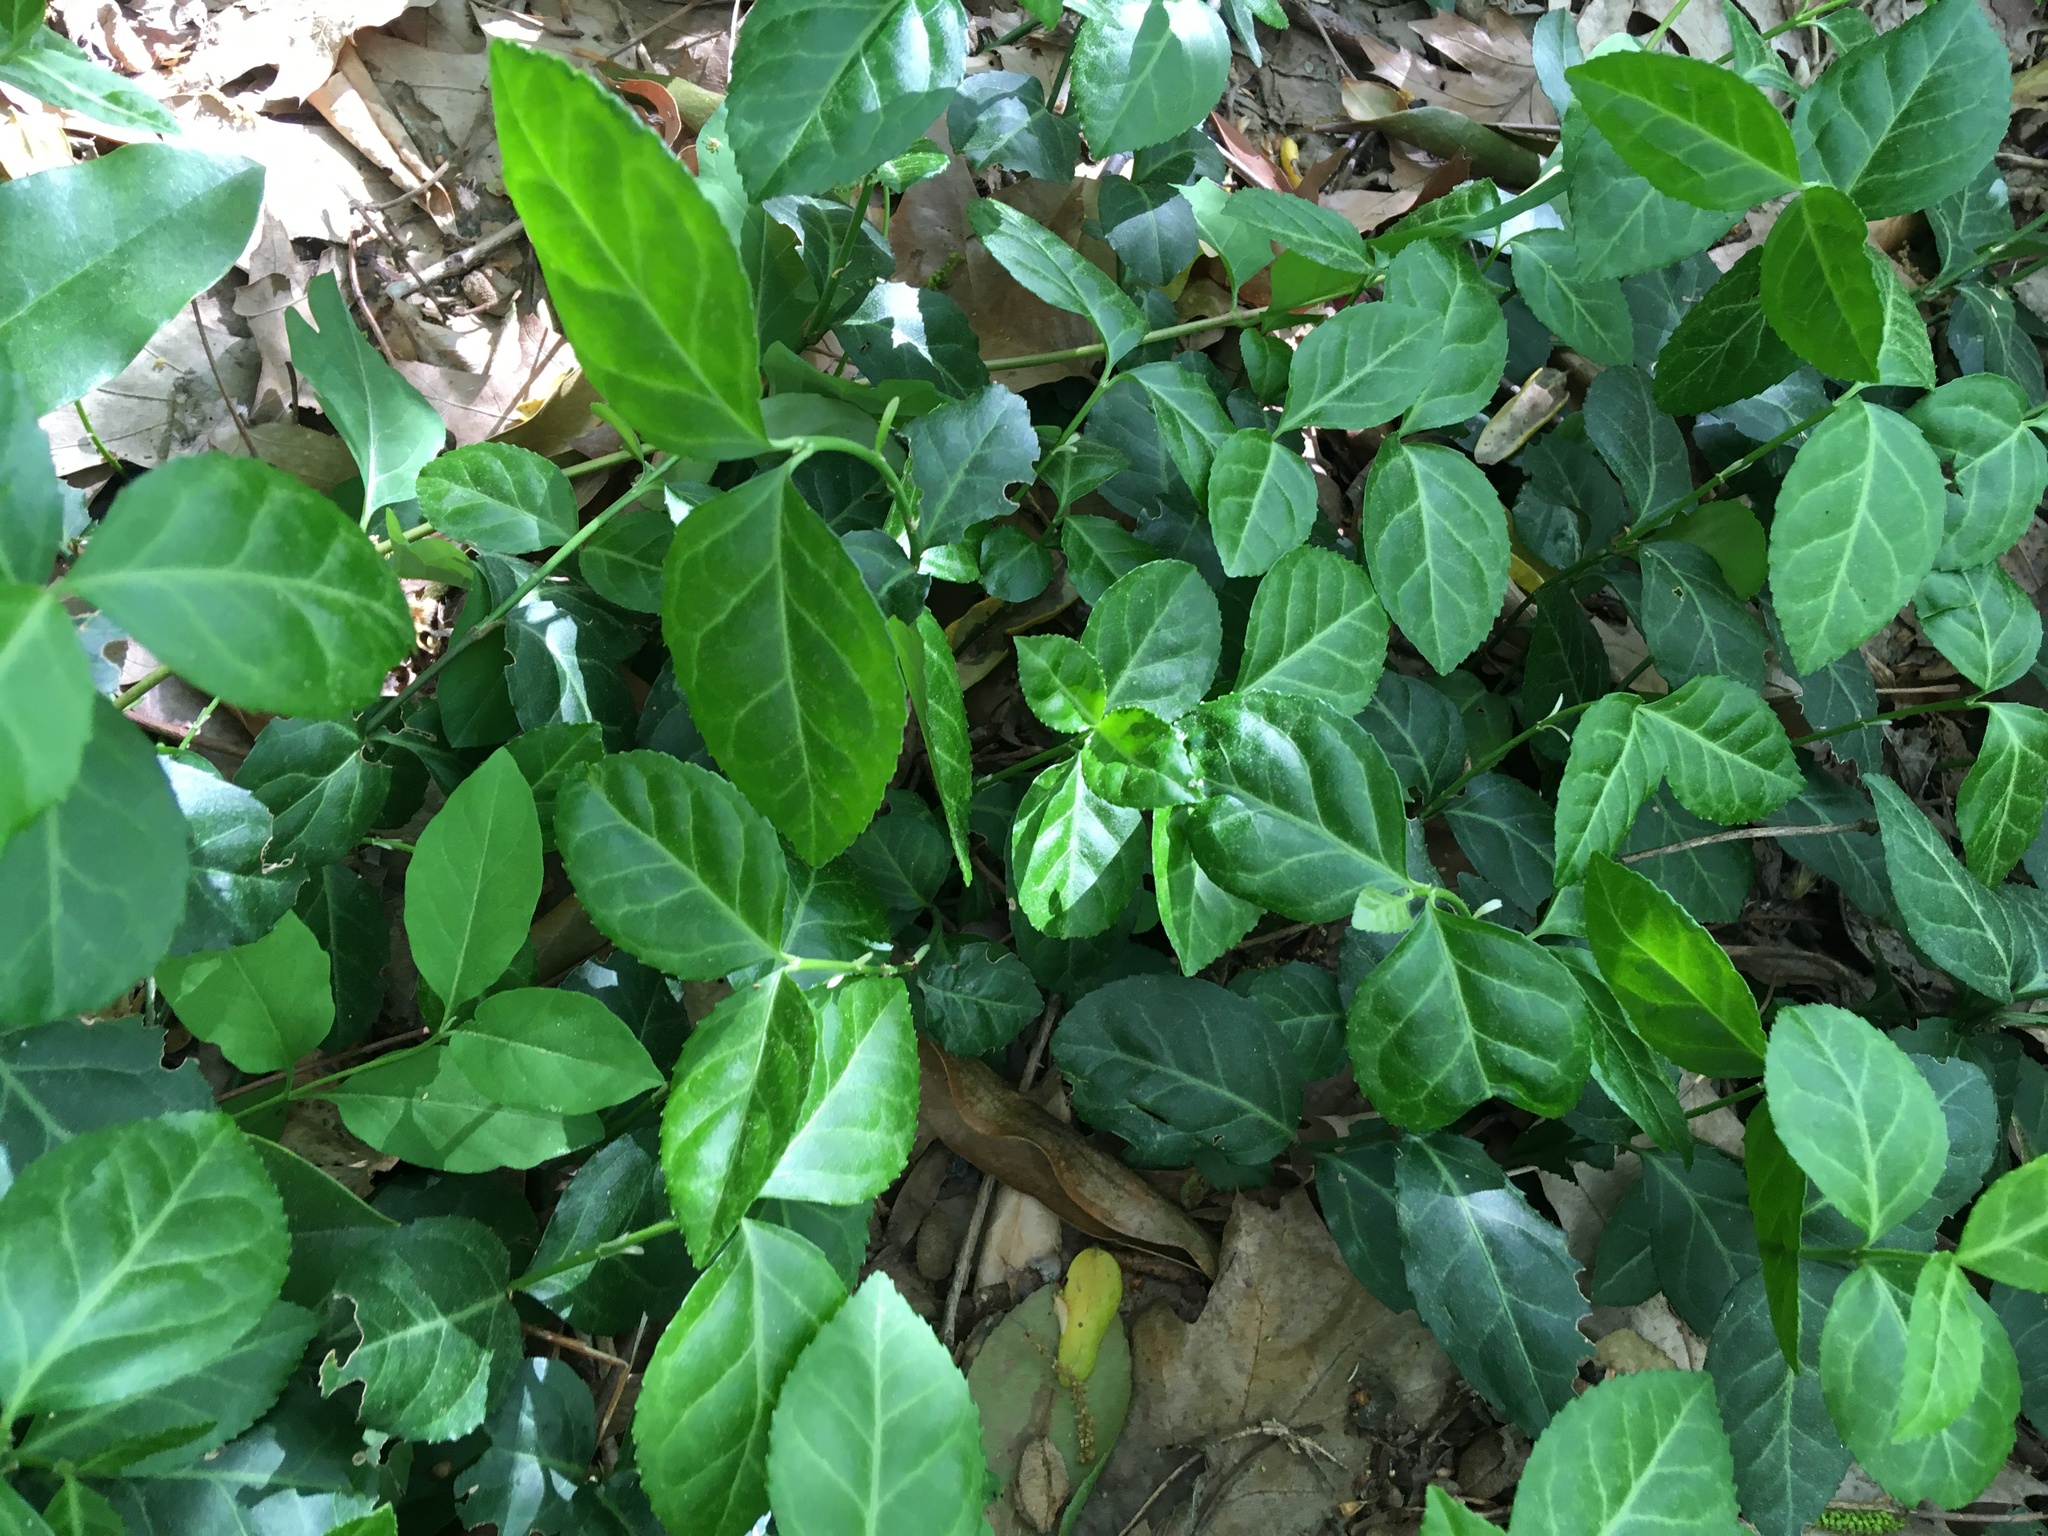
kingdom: Plantae
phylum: Tracheophyta
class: Magnoliopsida
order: Celastrales
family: Celastraceae
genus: Euonymus
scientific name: Euonymus fortunei
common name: Climbing euonymus
